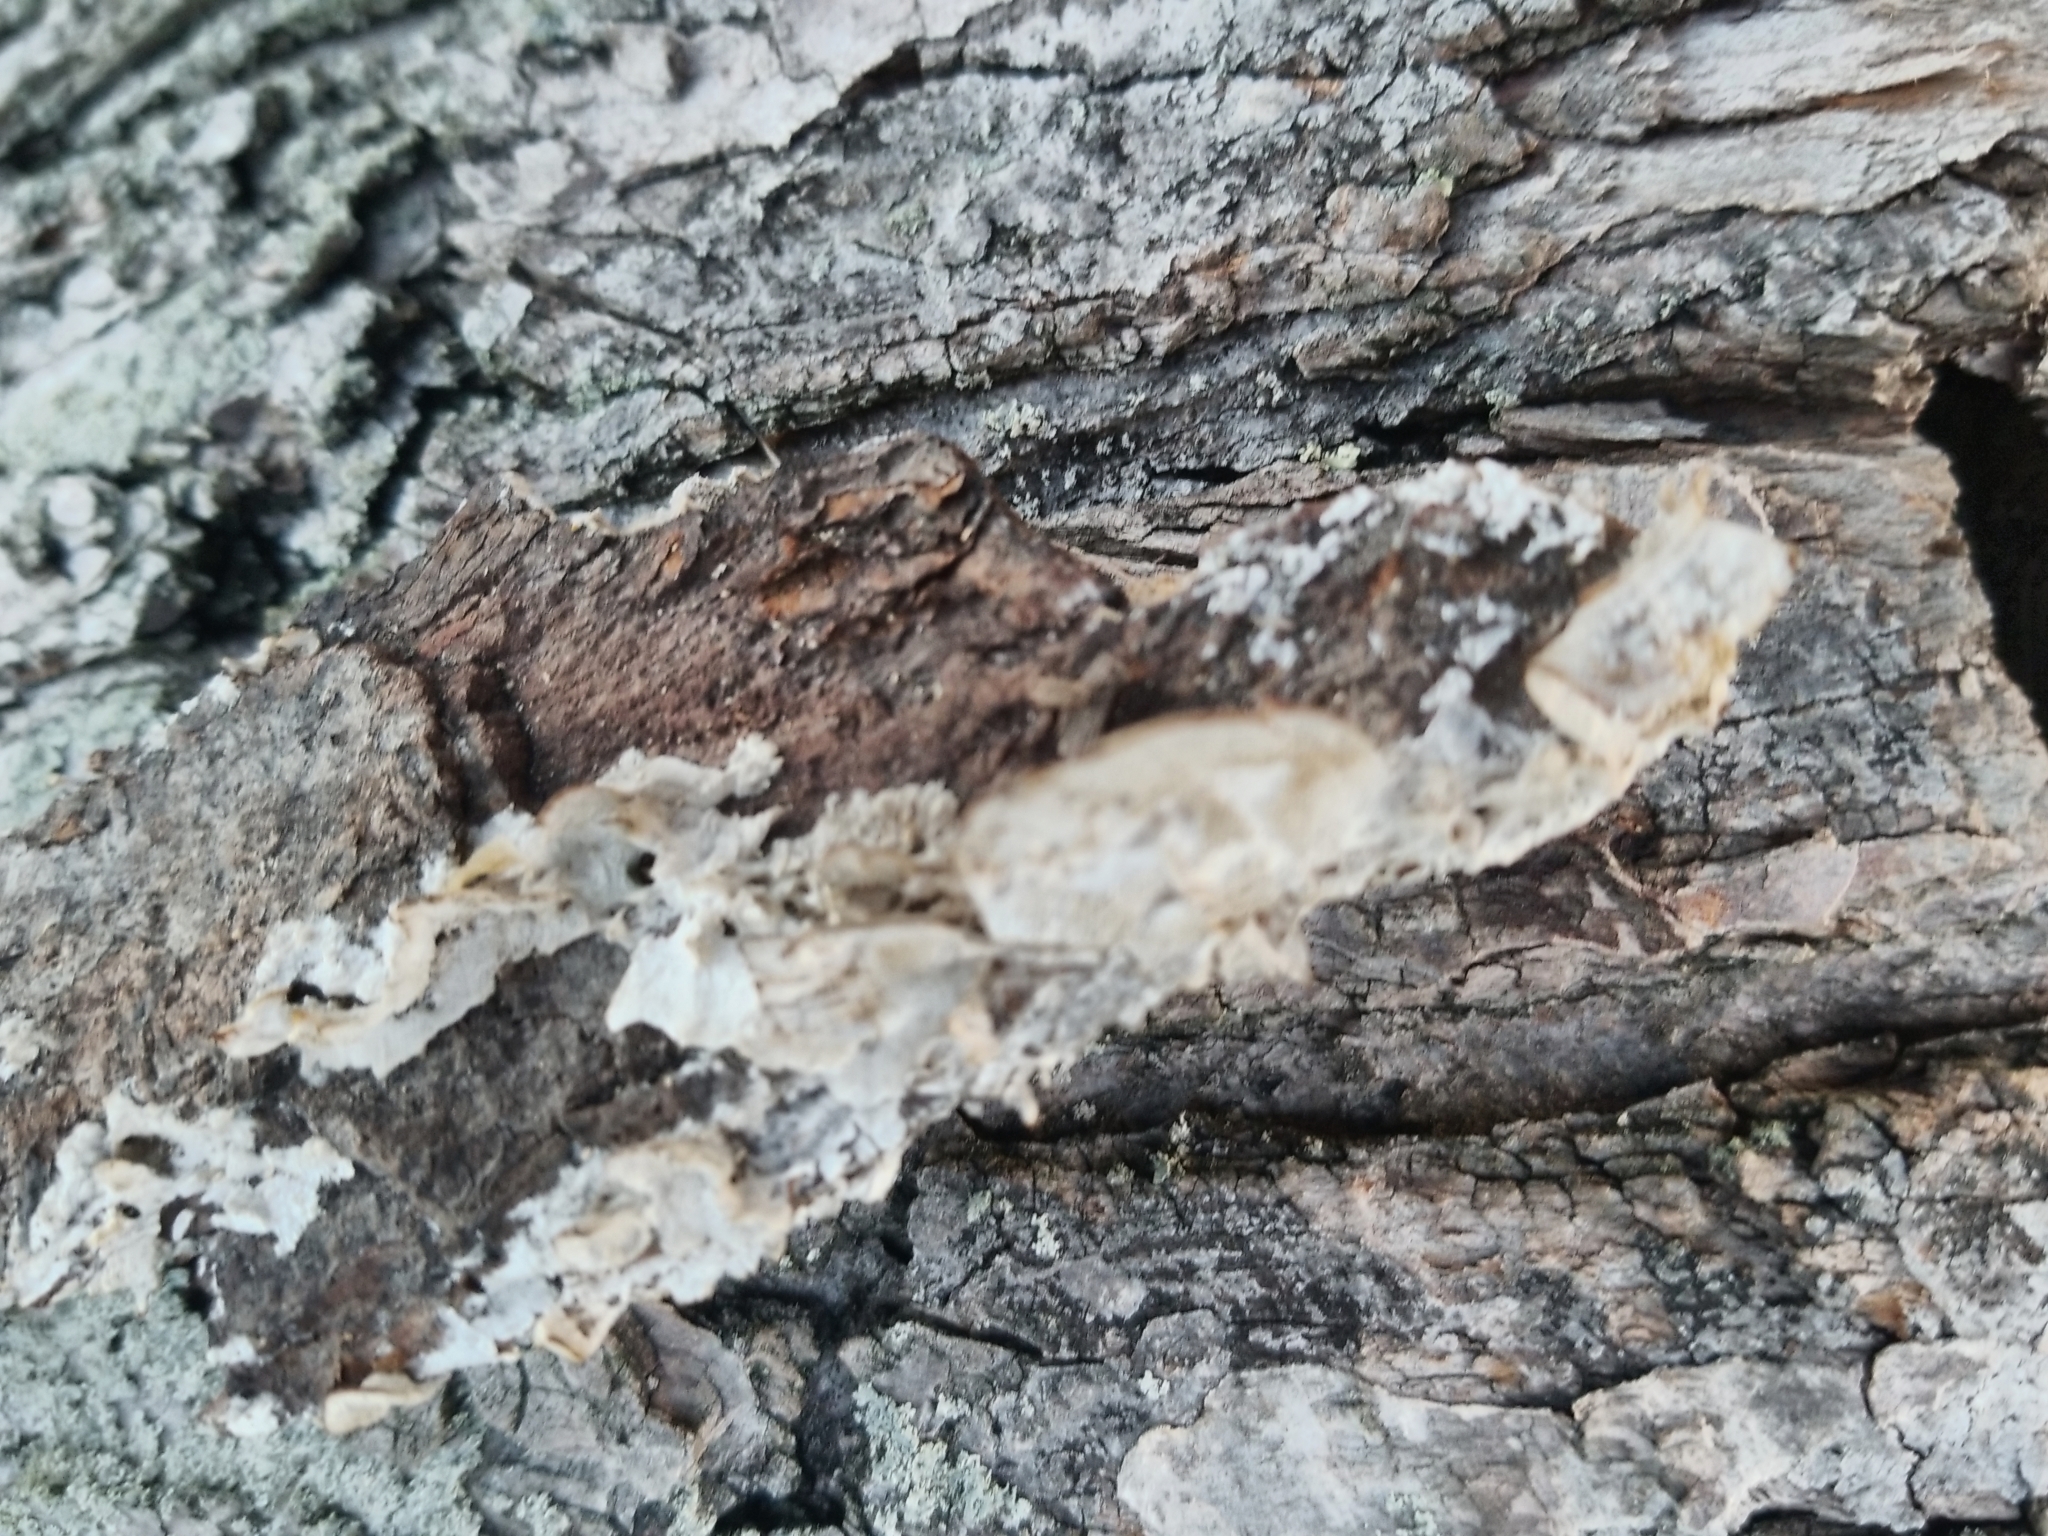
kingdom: Fungi
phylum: Basidiomycota
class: Agaricomycetes
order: Polyporales
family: Irpicaceae
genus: Irpex
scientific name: Irpex lacteus
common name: Milk-white toothed polypore
